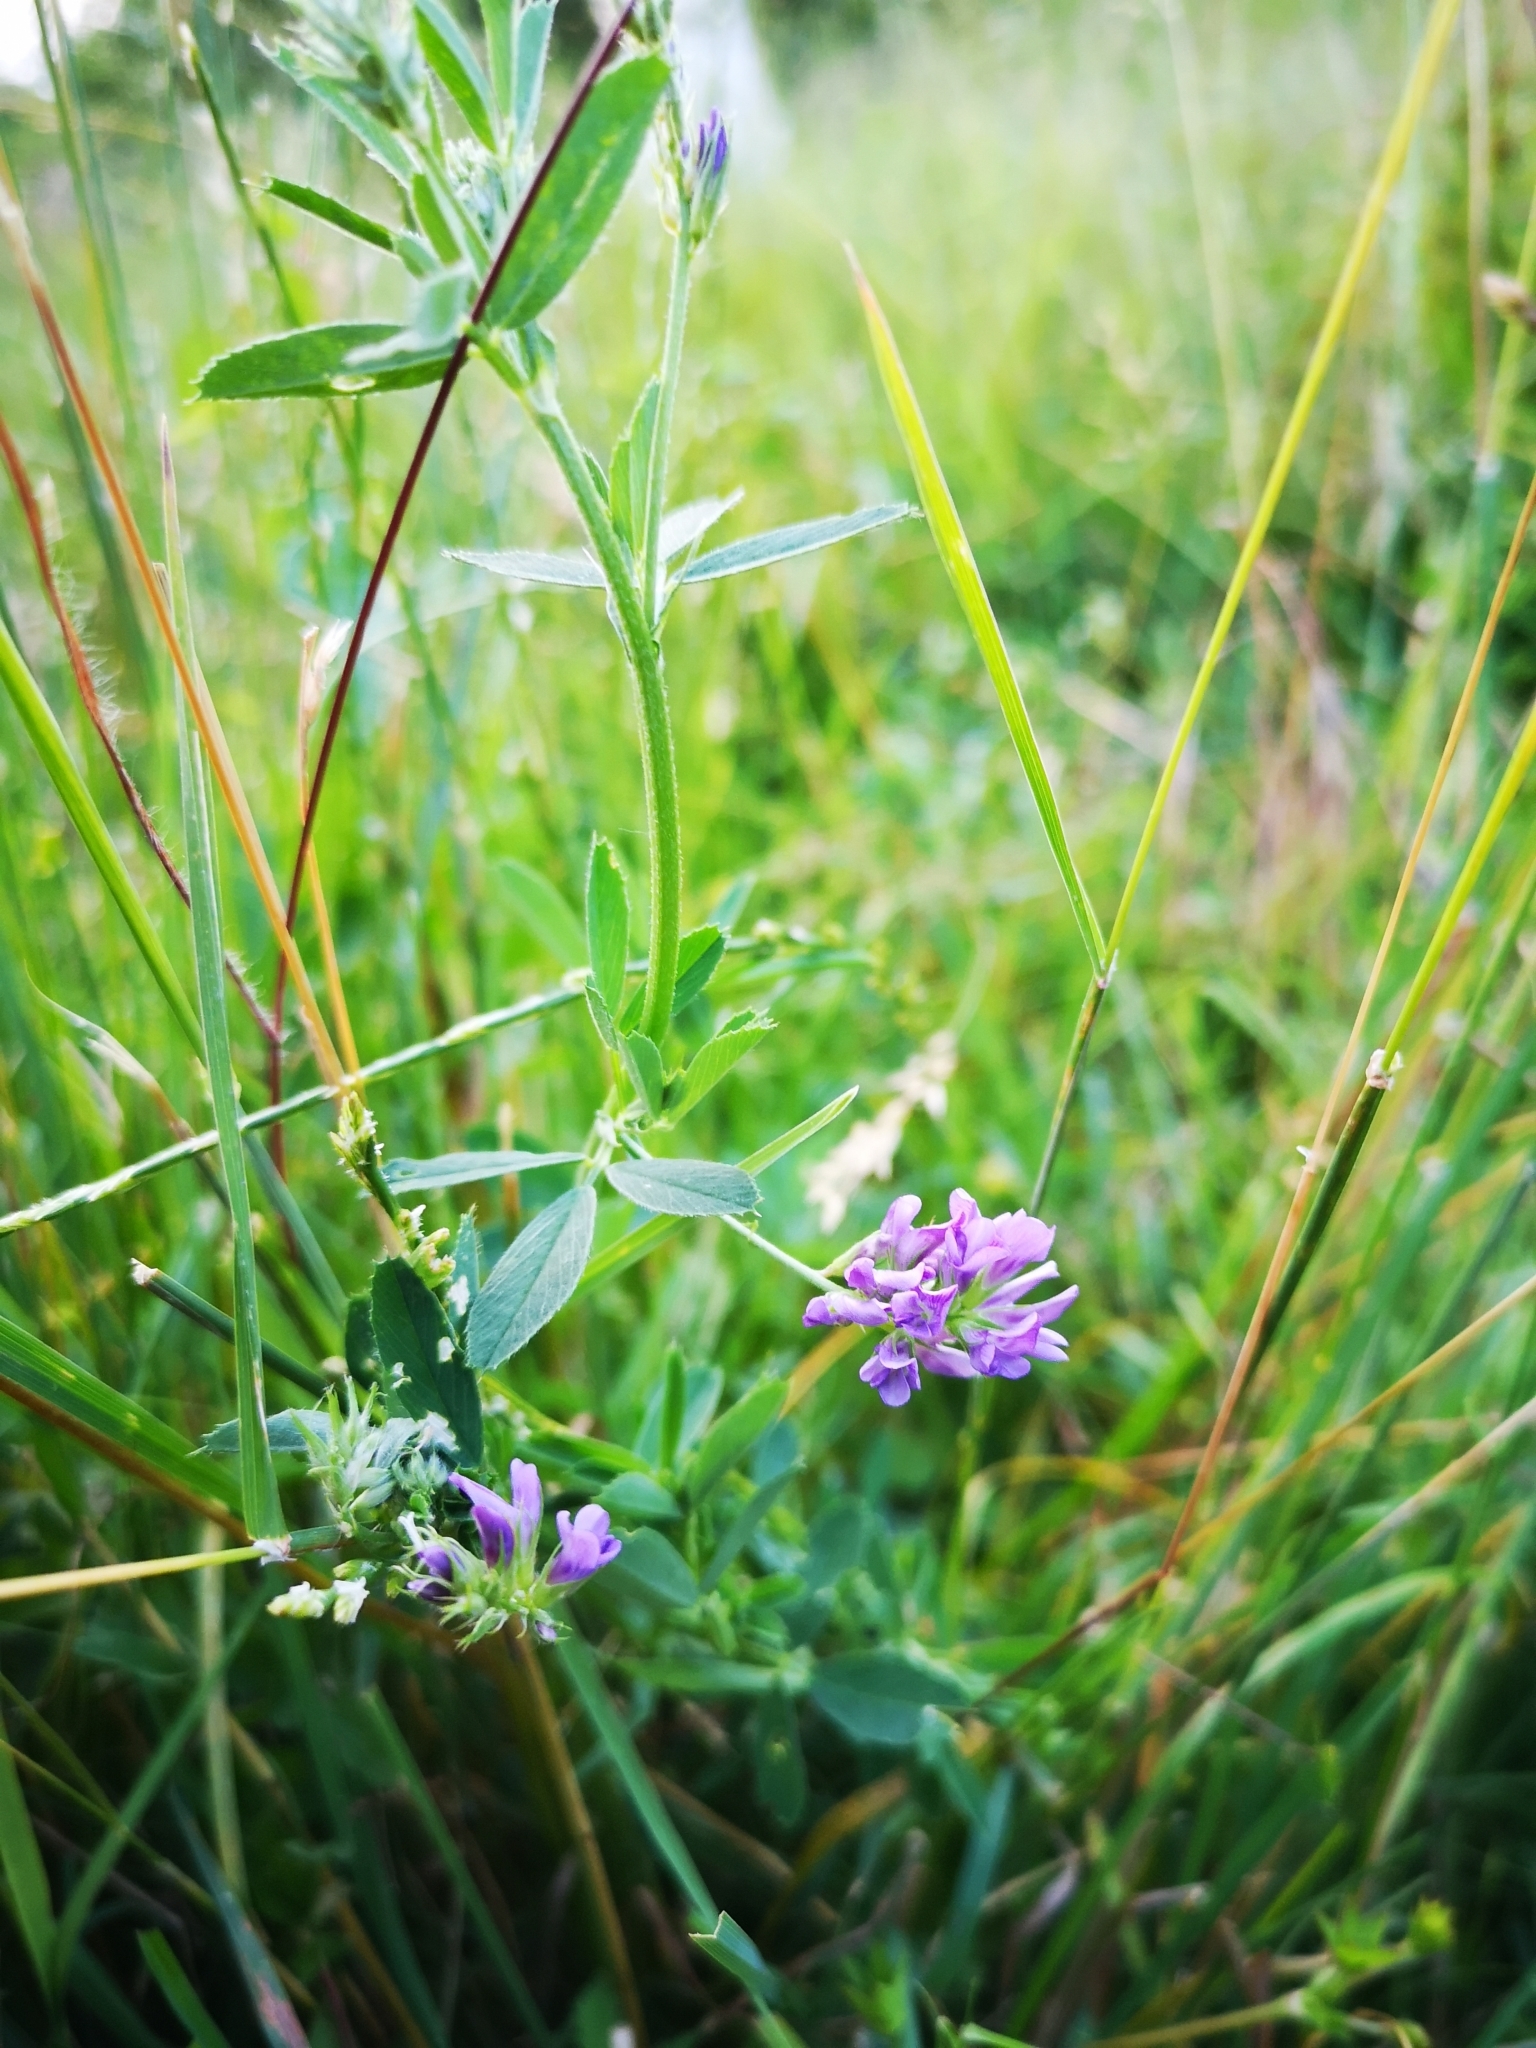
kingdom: Plantae
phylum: Tracheophyta
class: Magnoliopsida
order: Fabales
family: Fabaceae
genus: Medicago
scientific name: Medicago sativa
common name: Alfalfa
